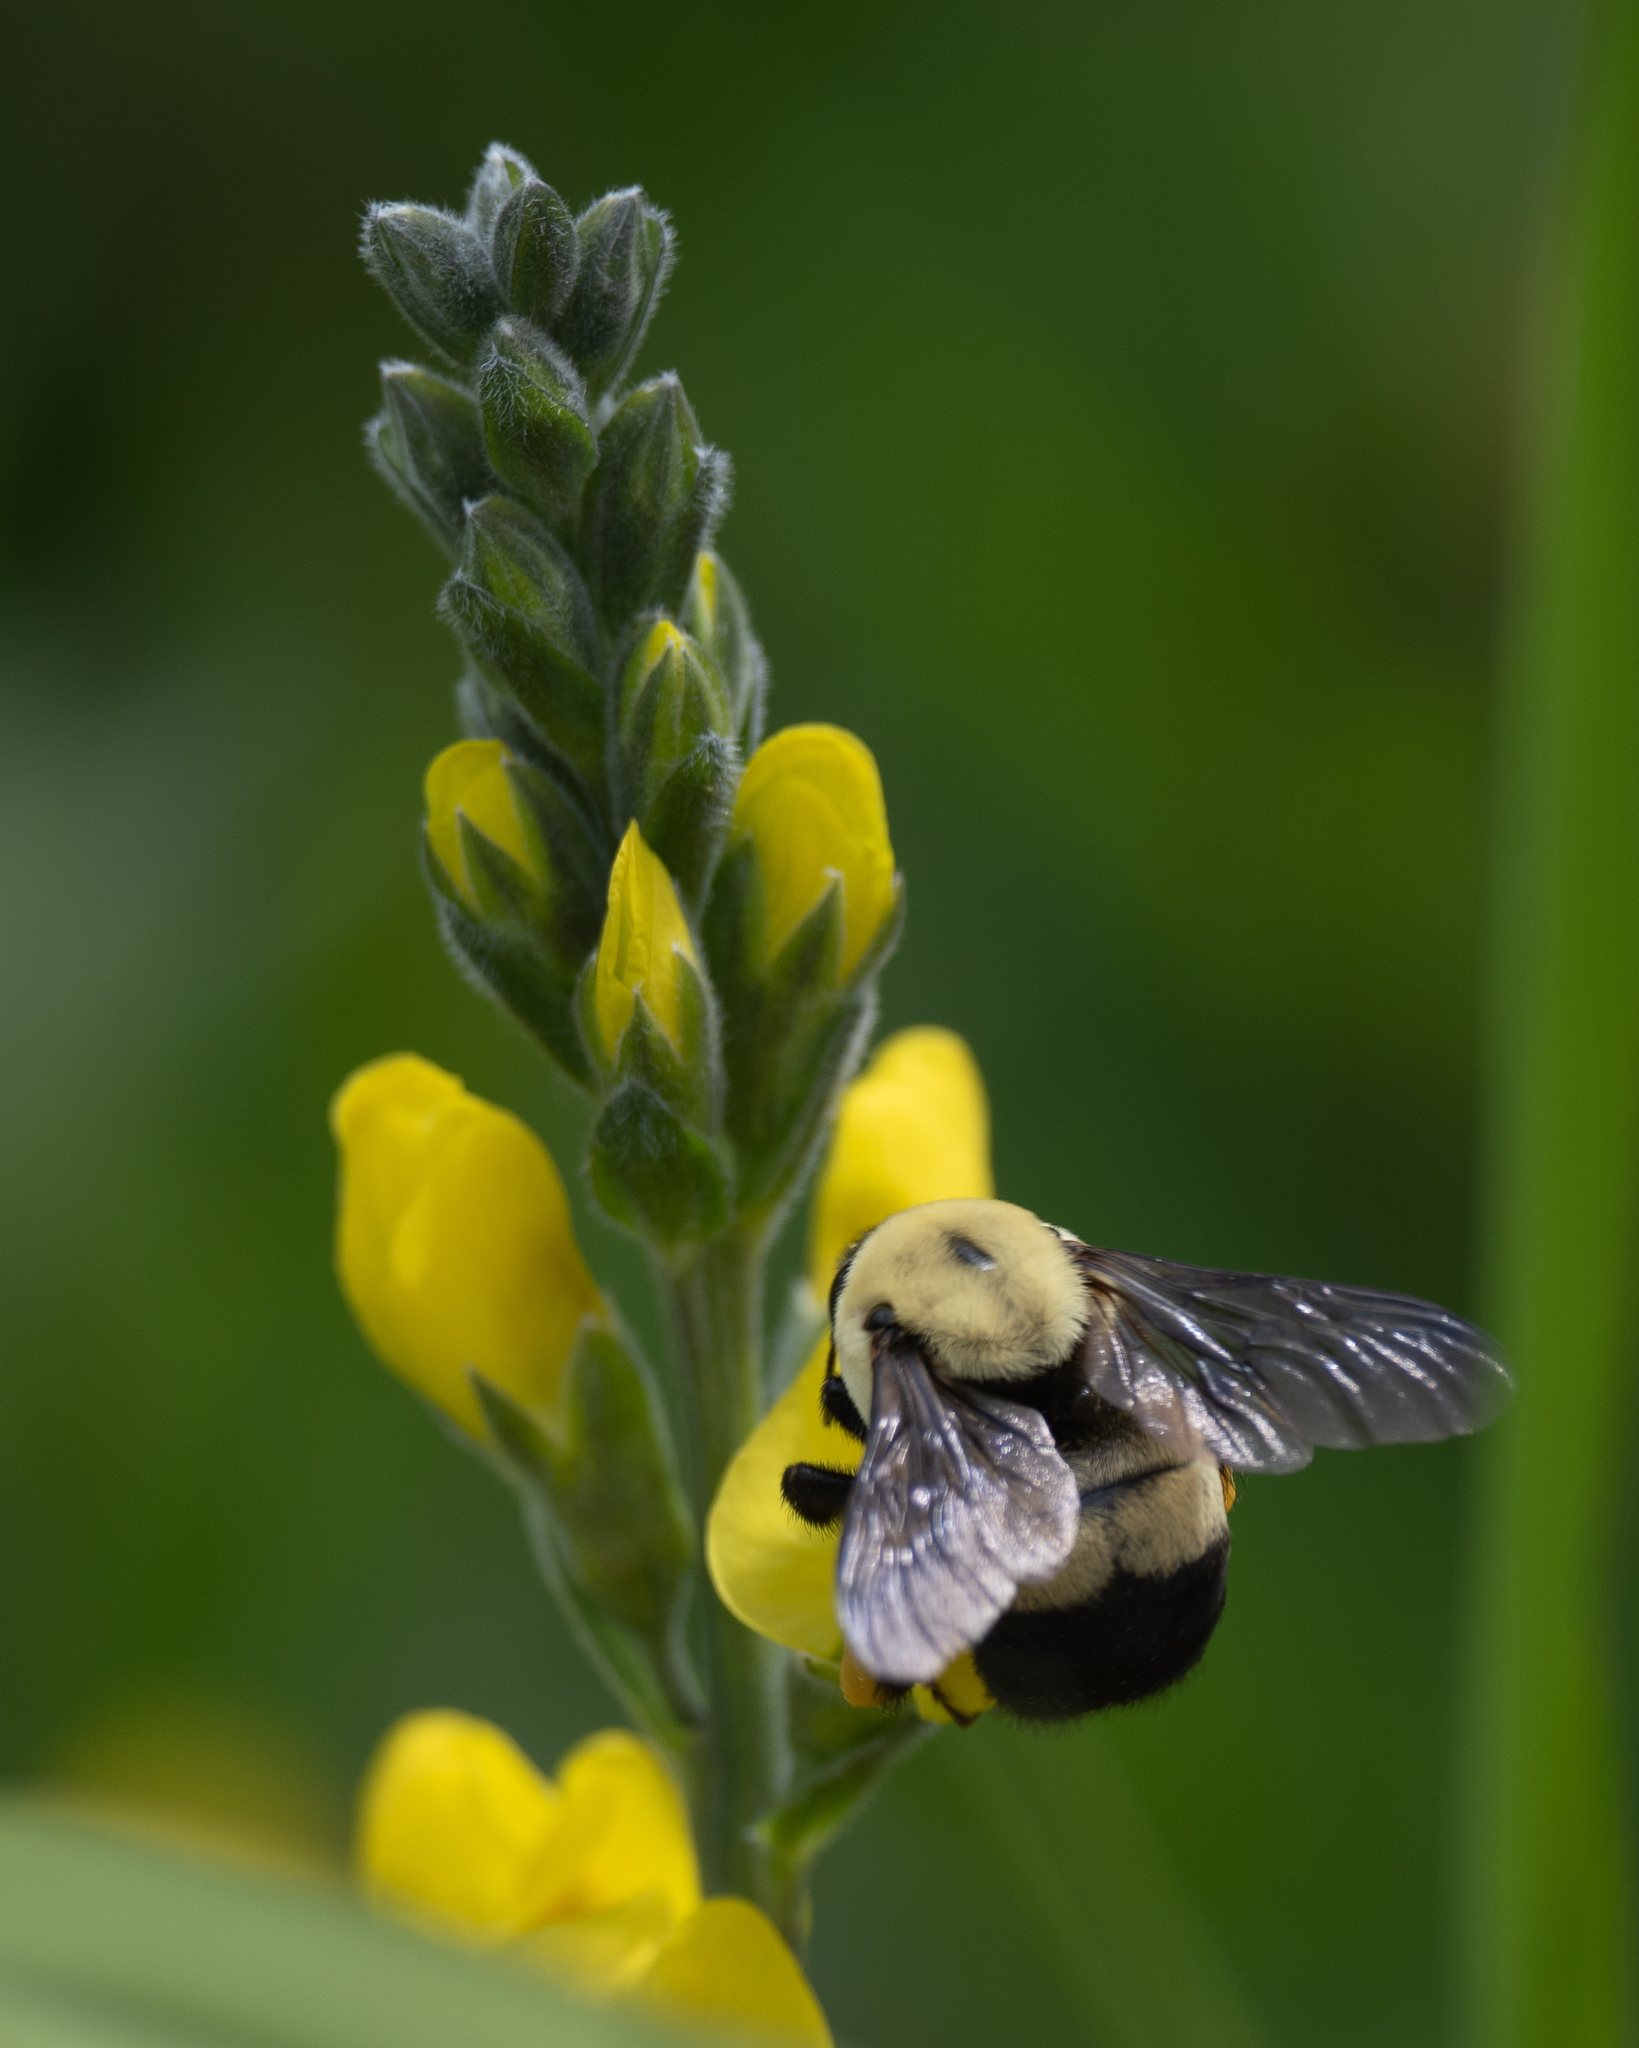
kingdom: Animalia
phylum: Arthropoda
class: Insecta
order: Hymenoptera
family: Apidae
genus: Bombus
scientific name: Bombus griseocollis
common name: Brown-belted bumble bee
